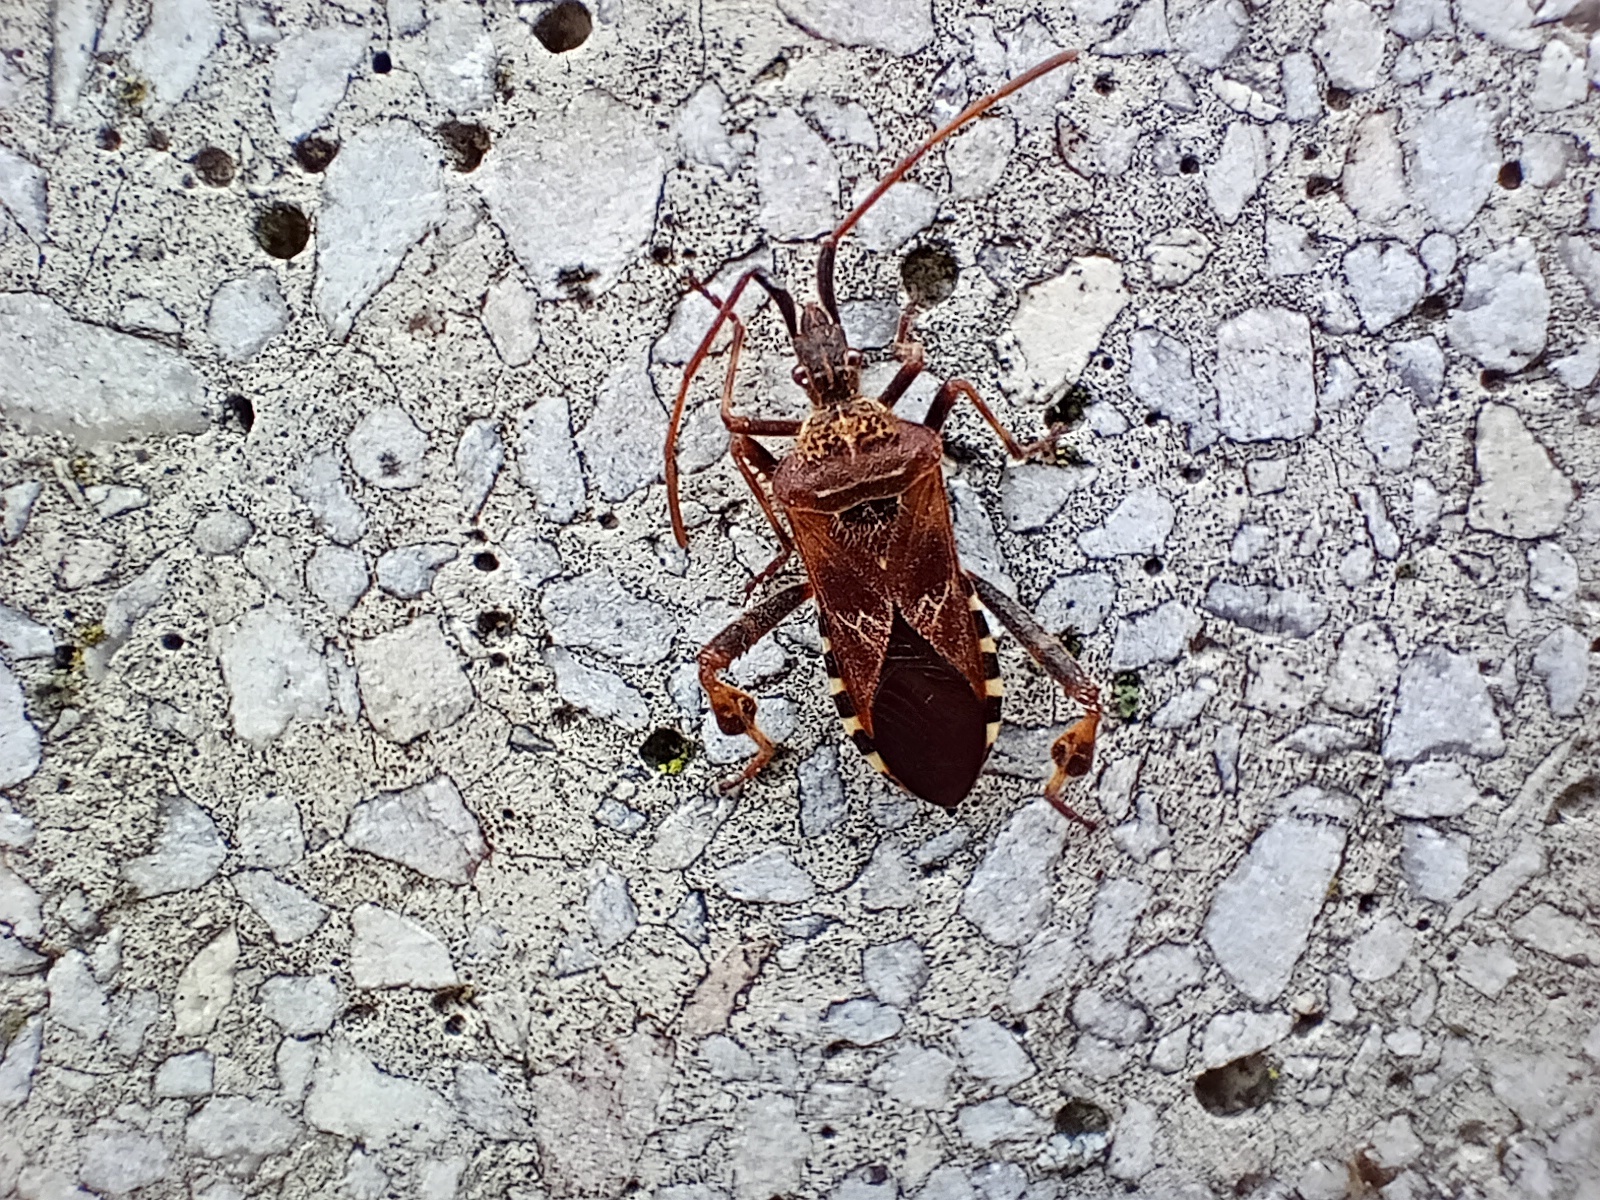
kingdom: Animalia
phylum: Arthropoda
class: Insecta
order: Hemiptera
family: Coreidae
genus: Leptoglossus
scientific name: Leptoglossus occidentalis
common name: Western conifer-seed bug
